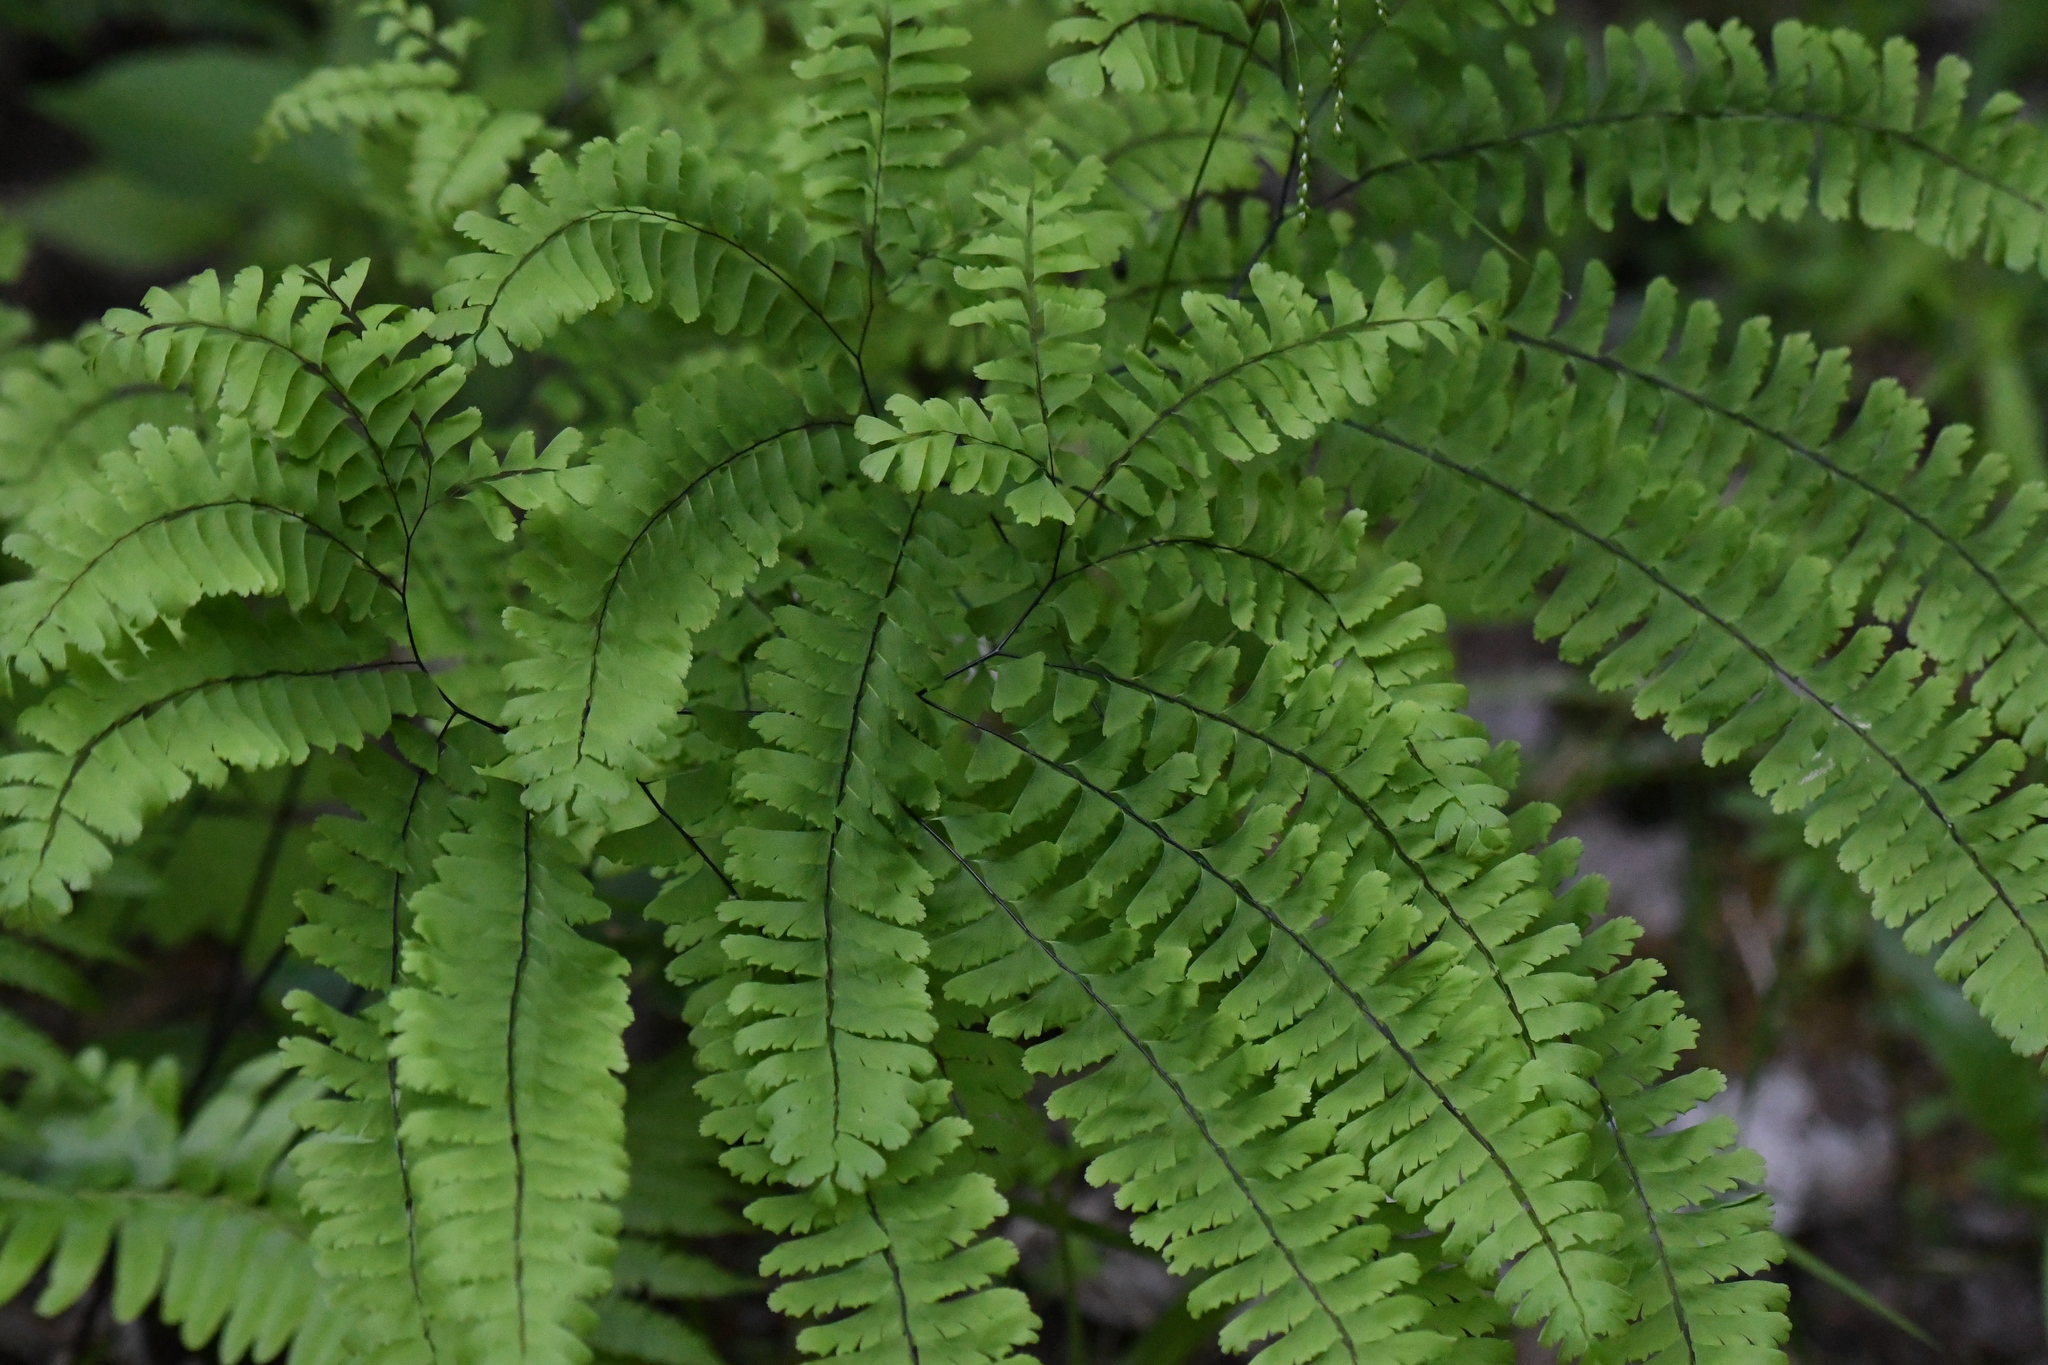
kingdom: Plantae
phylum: Tracheophyta
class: Polypodiopsida
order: Polypodiales
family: Pteridaceae
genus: Adiantum
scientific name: Adiantum pedatum
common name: Five-finger fern
